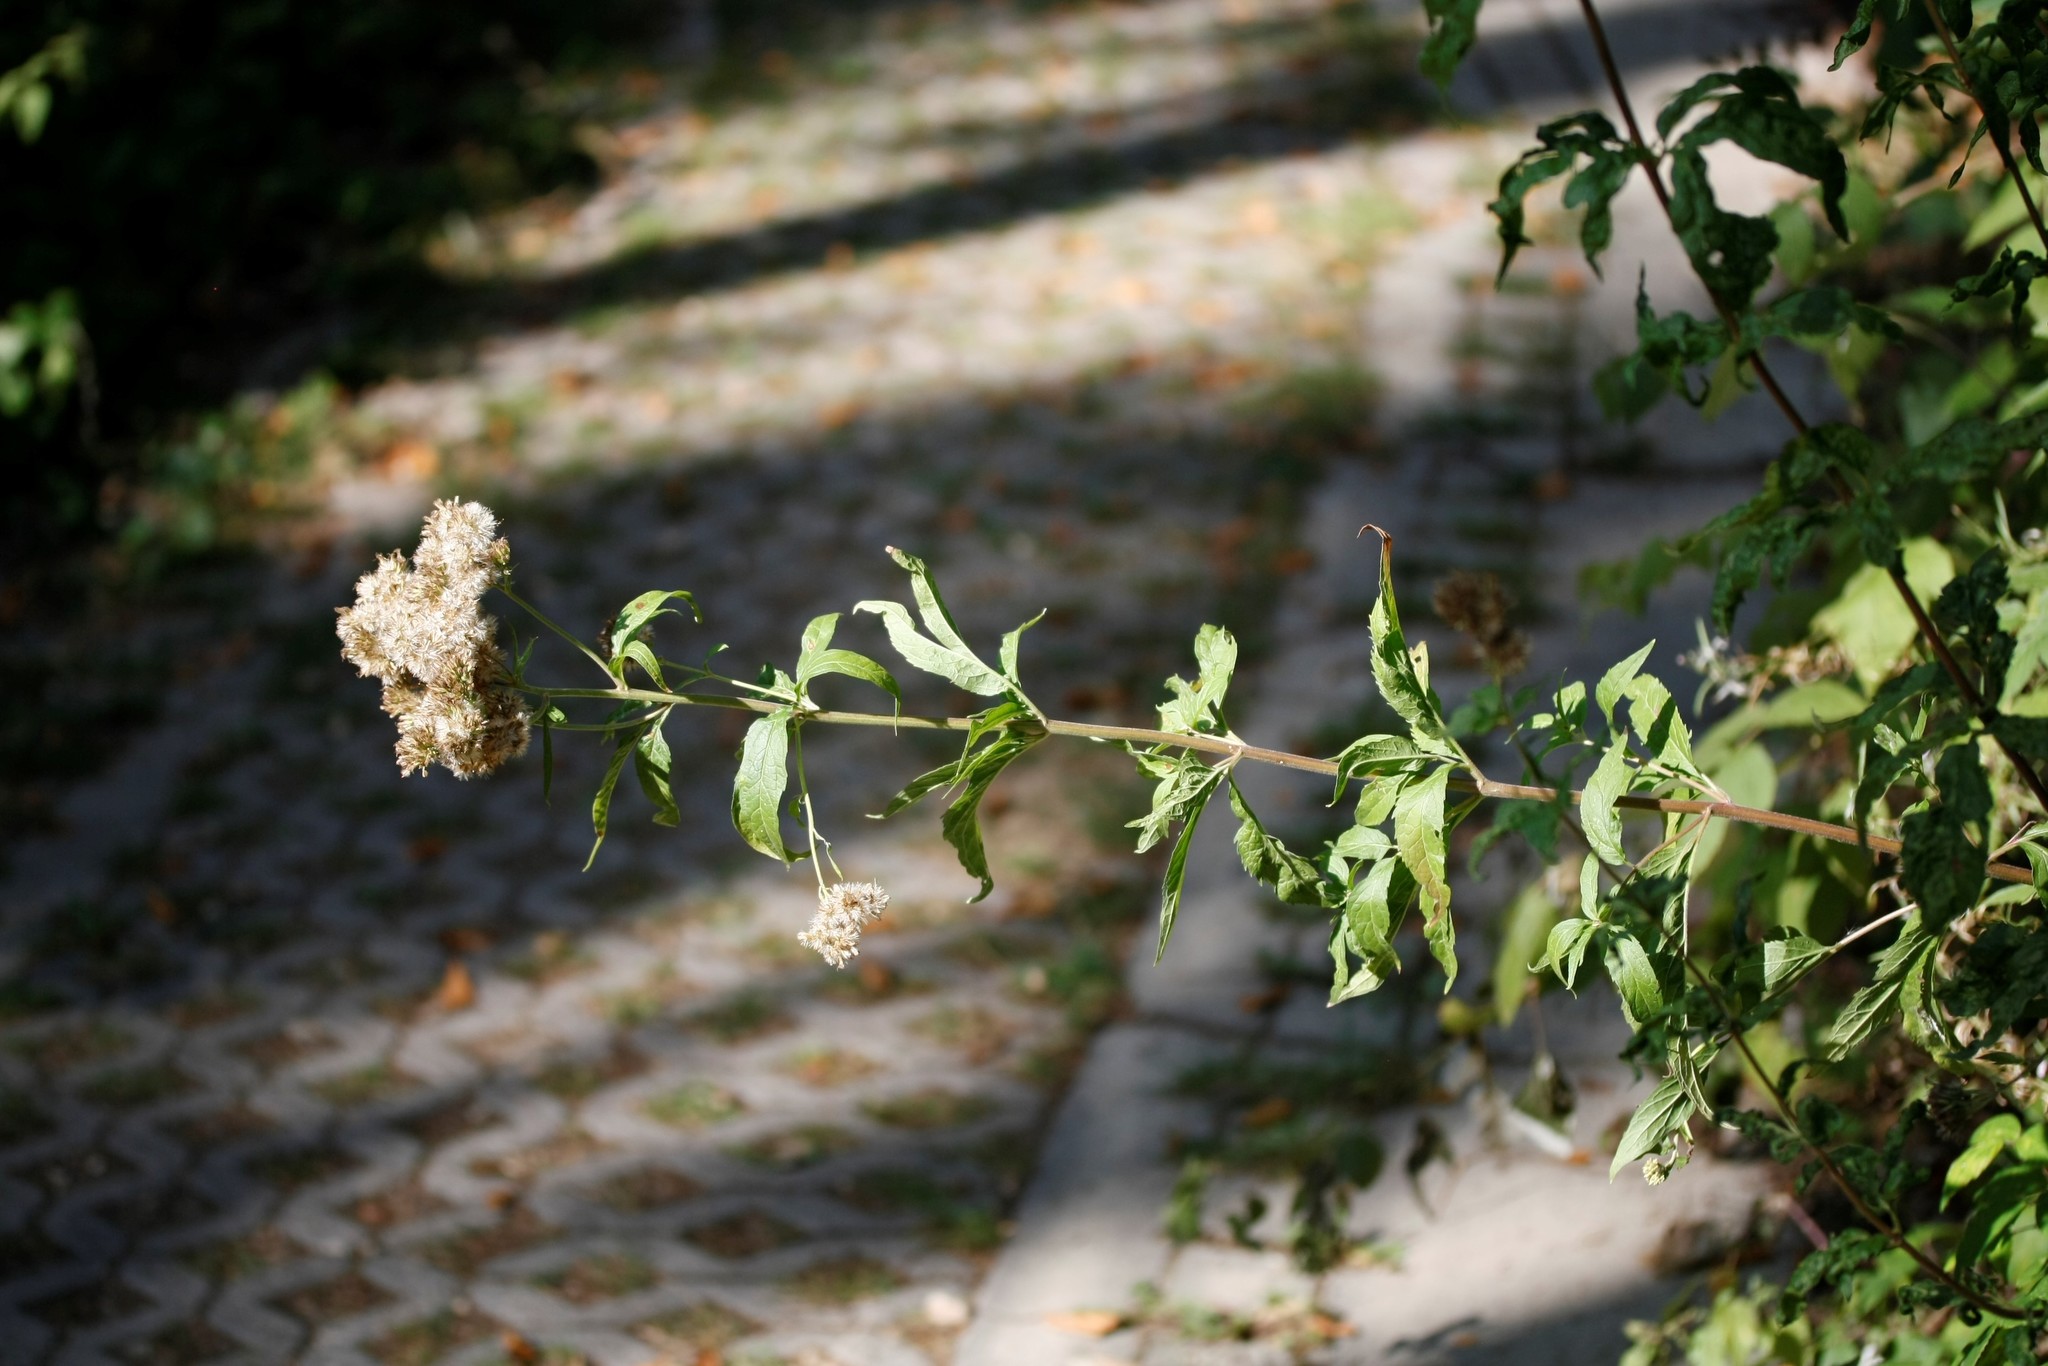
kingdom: Plantae
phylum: Tracheophyta
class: Magnoliopsida
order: Asterales
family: Asteraceae
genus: Eupatorium
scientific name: Eupatorium cannabinum
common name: Hemp-agrimony
